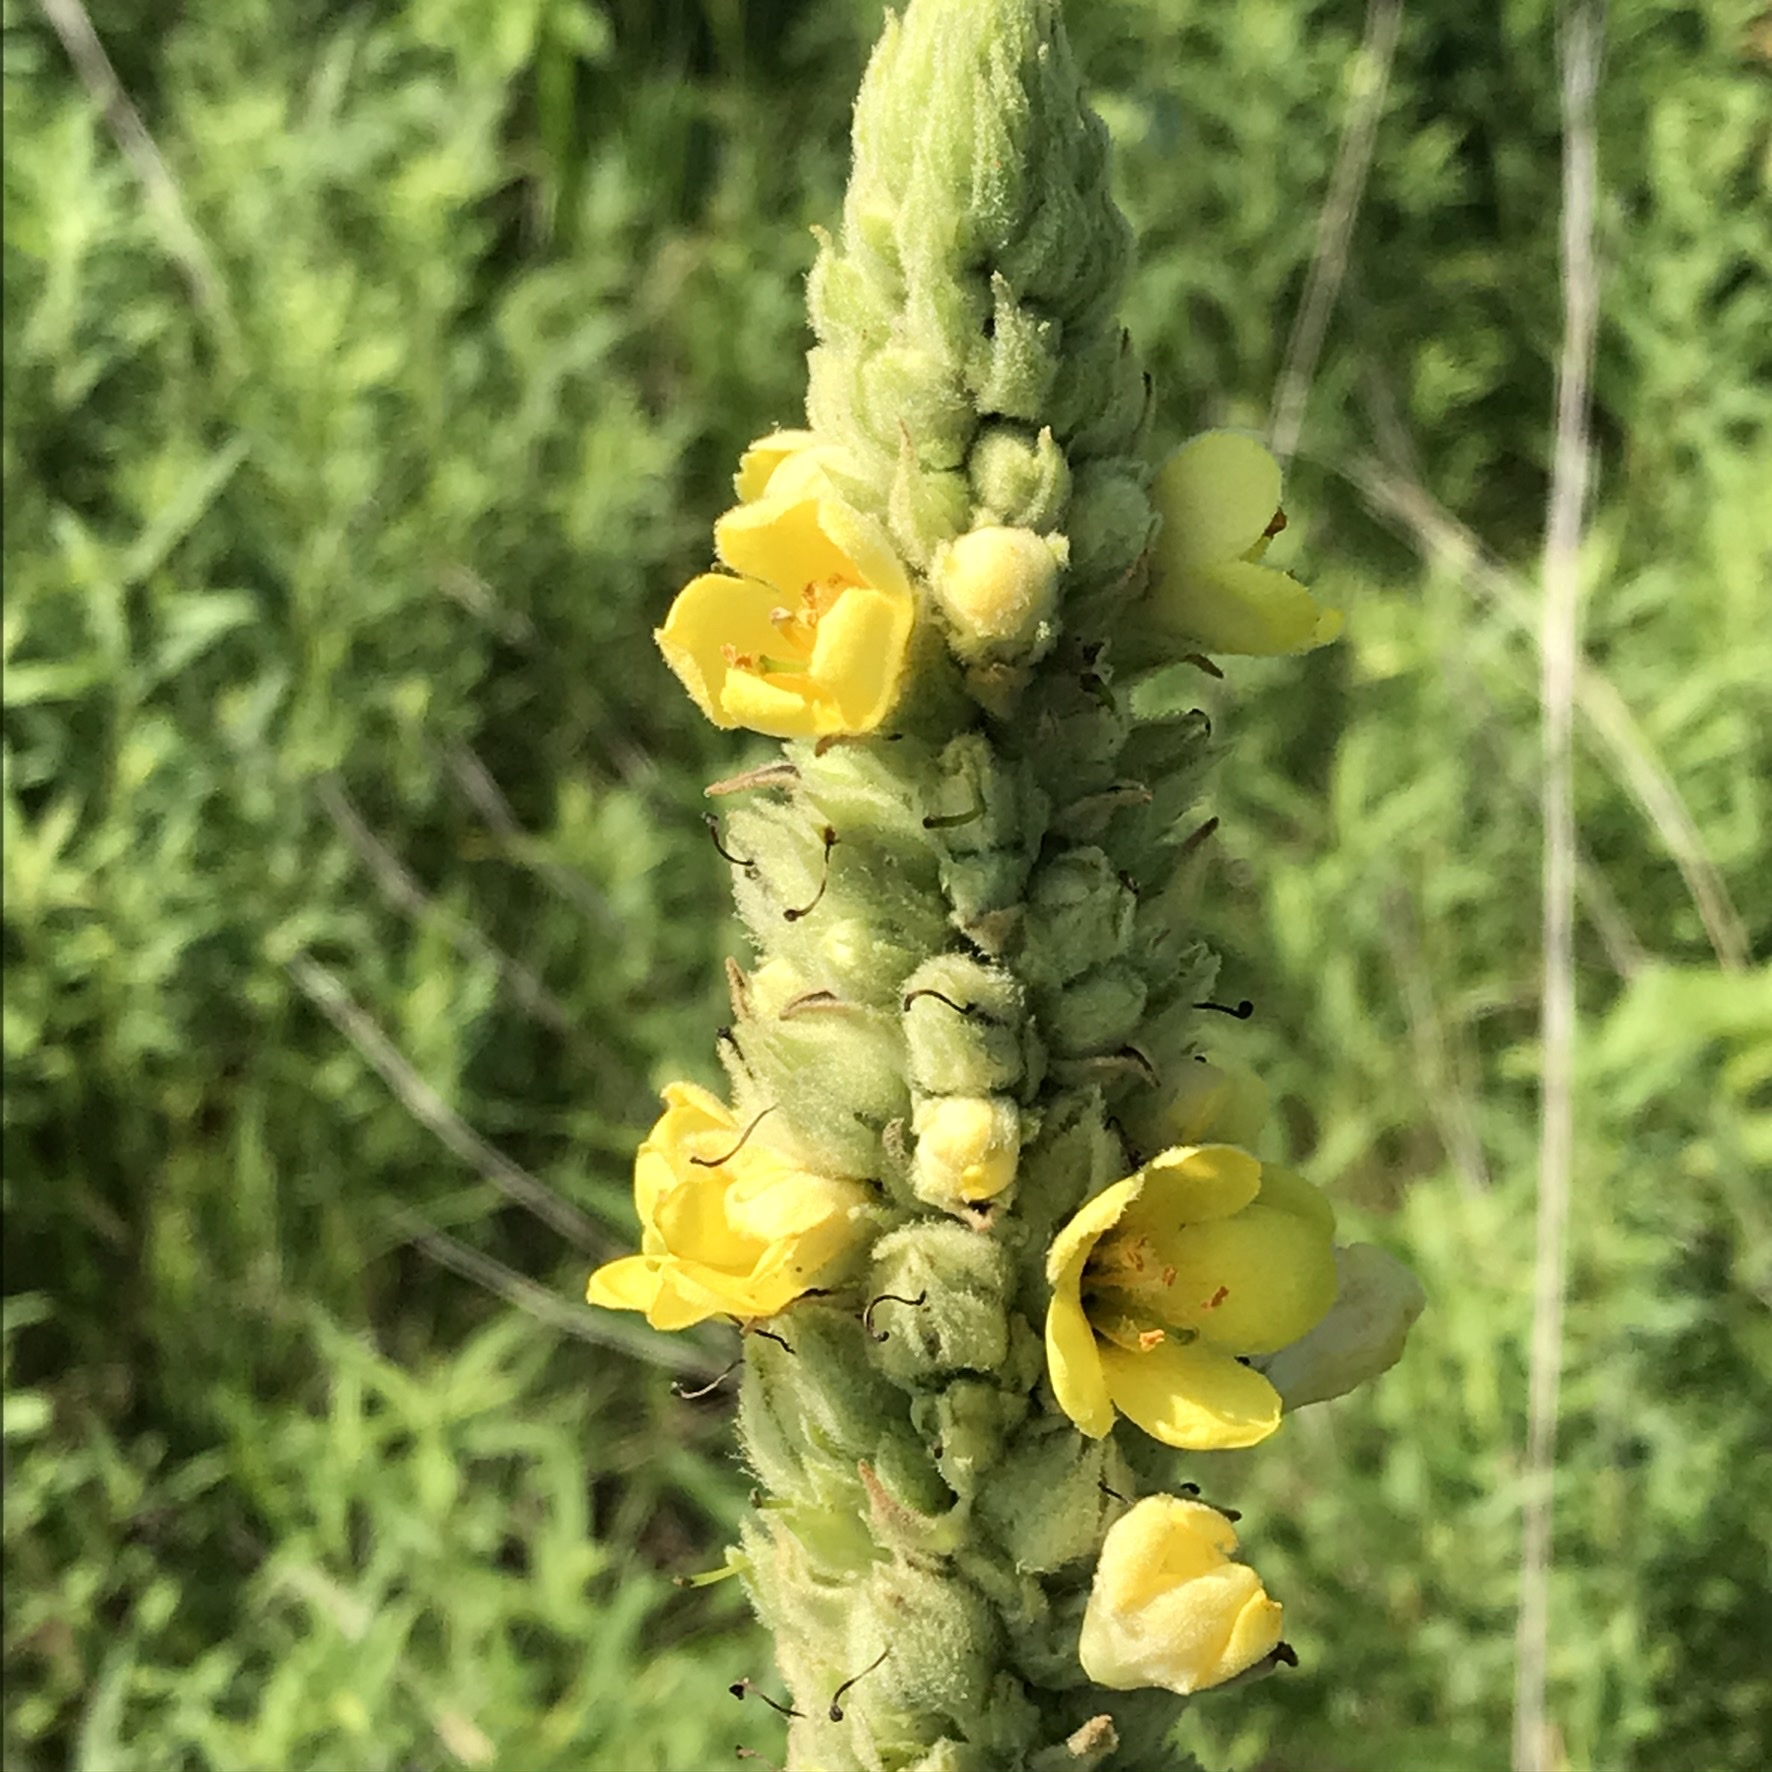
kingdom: Plantae
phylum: Tracheophyta
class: Magnoliopsida
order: Lamiales
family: Scrophulariaceae
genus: Verbascum
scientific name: Verbascum thapsus
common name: Common mullein
